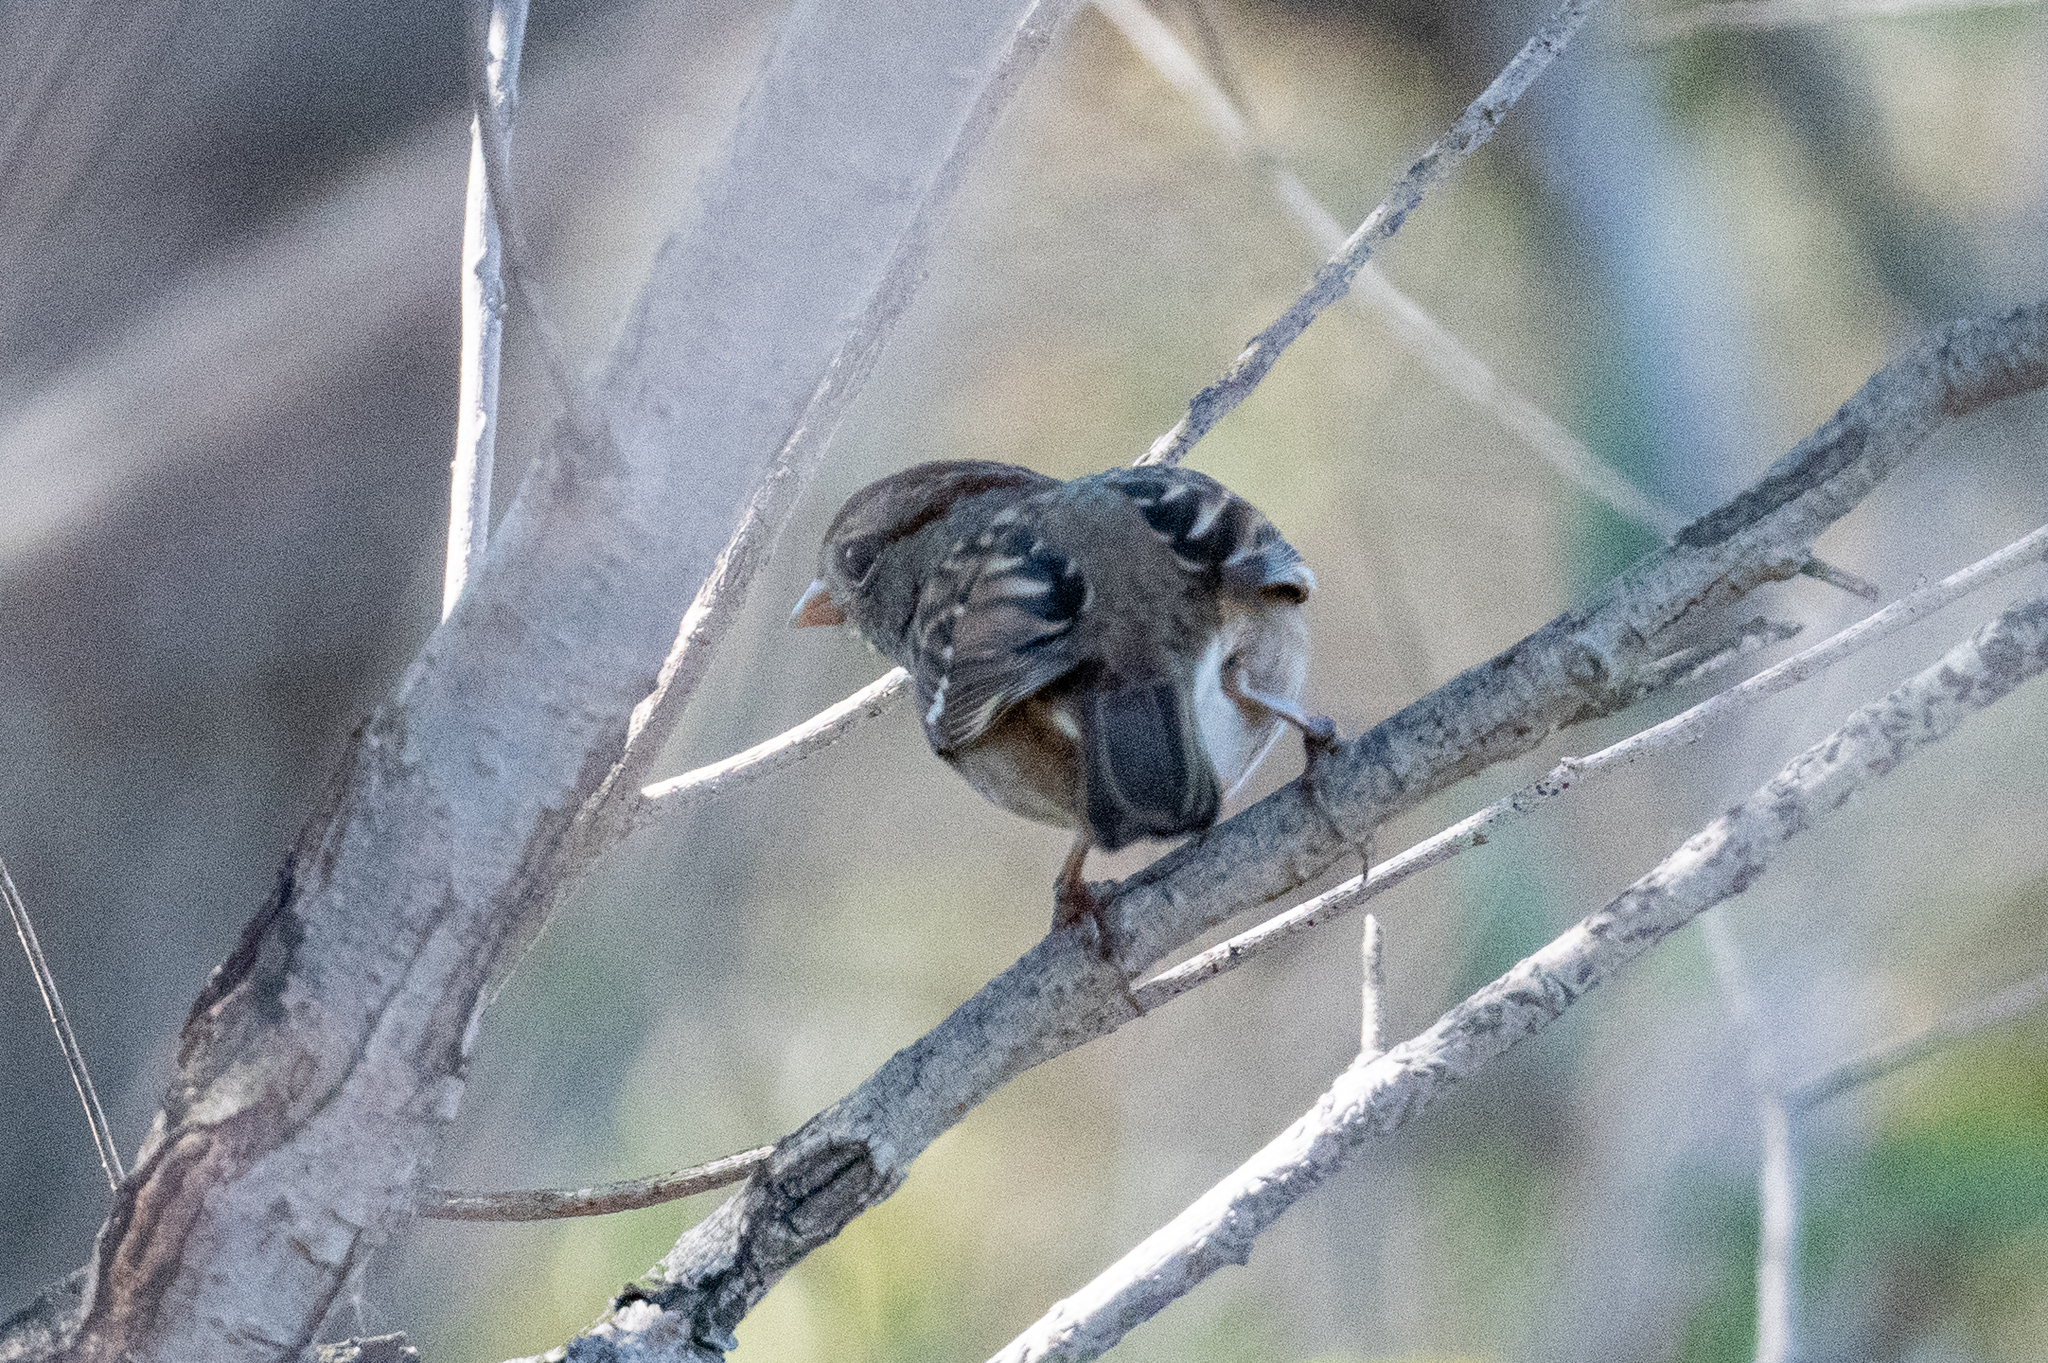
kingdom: Animalia
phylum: Chordata
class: Aves
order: Passeriformes
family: Passerellidae
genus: Zonotrichia
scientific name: Zonotrichia leucophrys
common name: White-crowned sparrow
